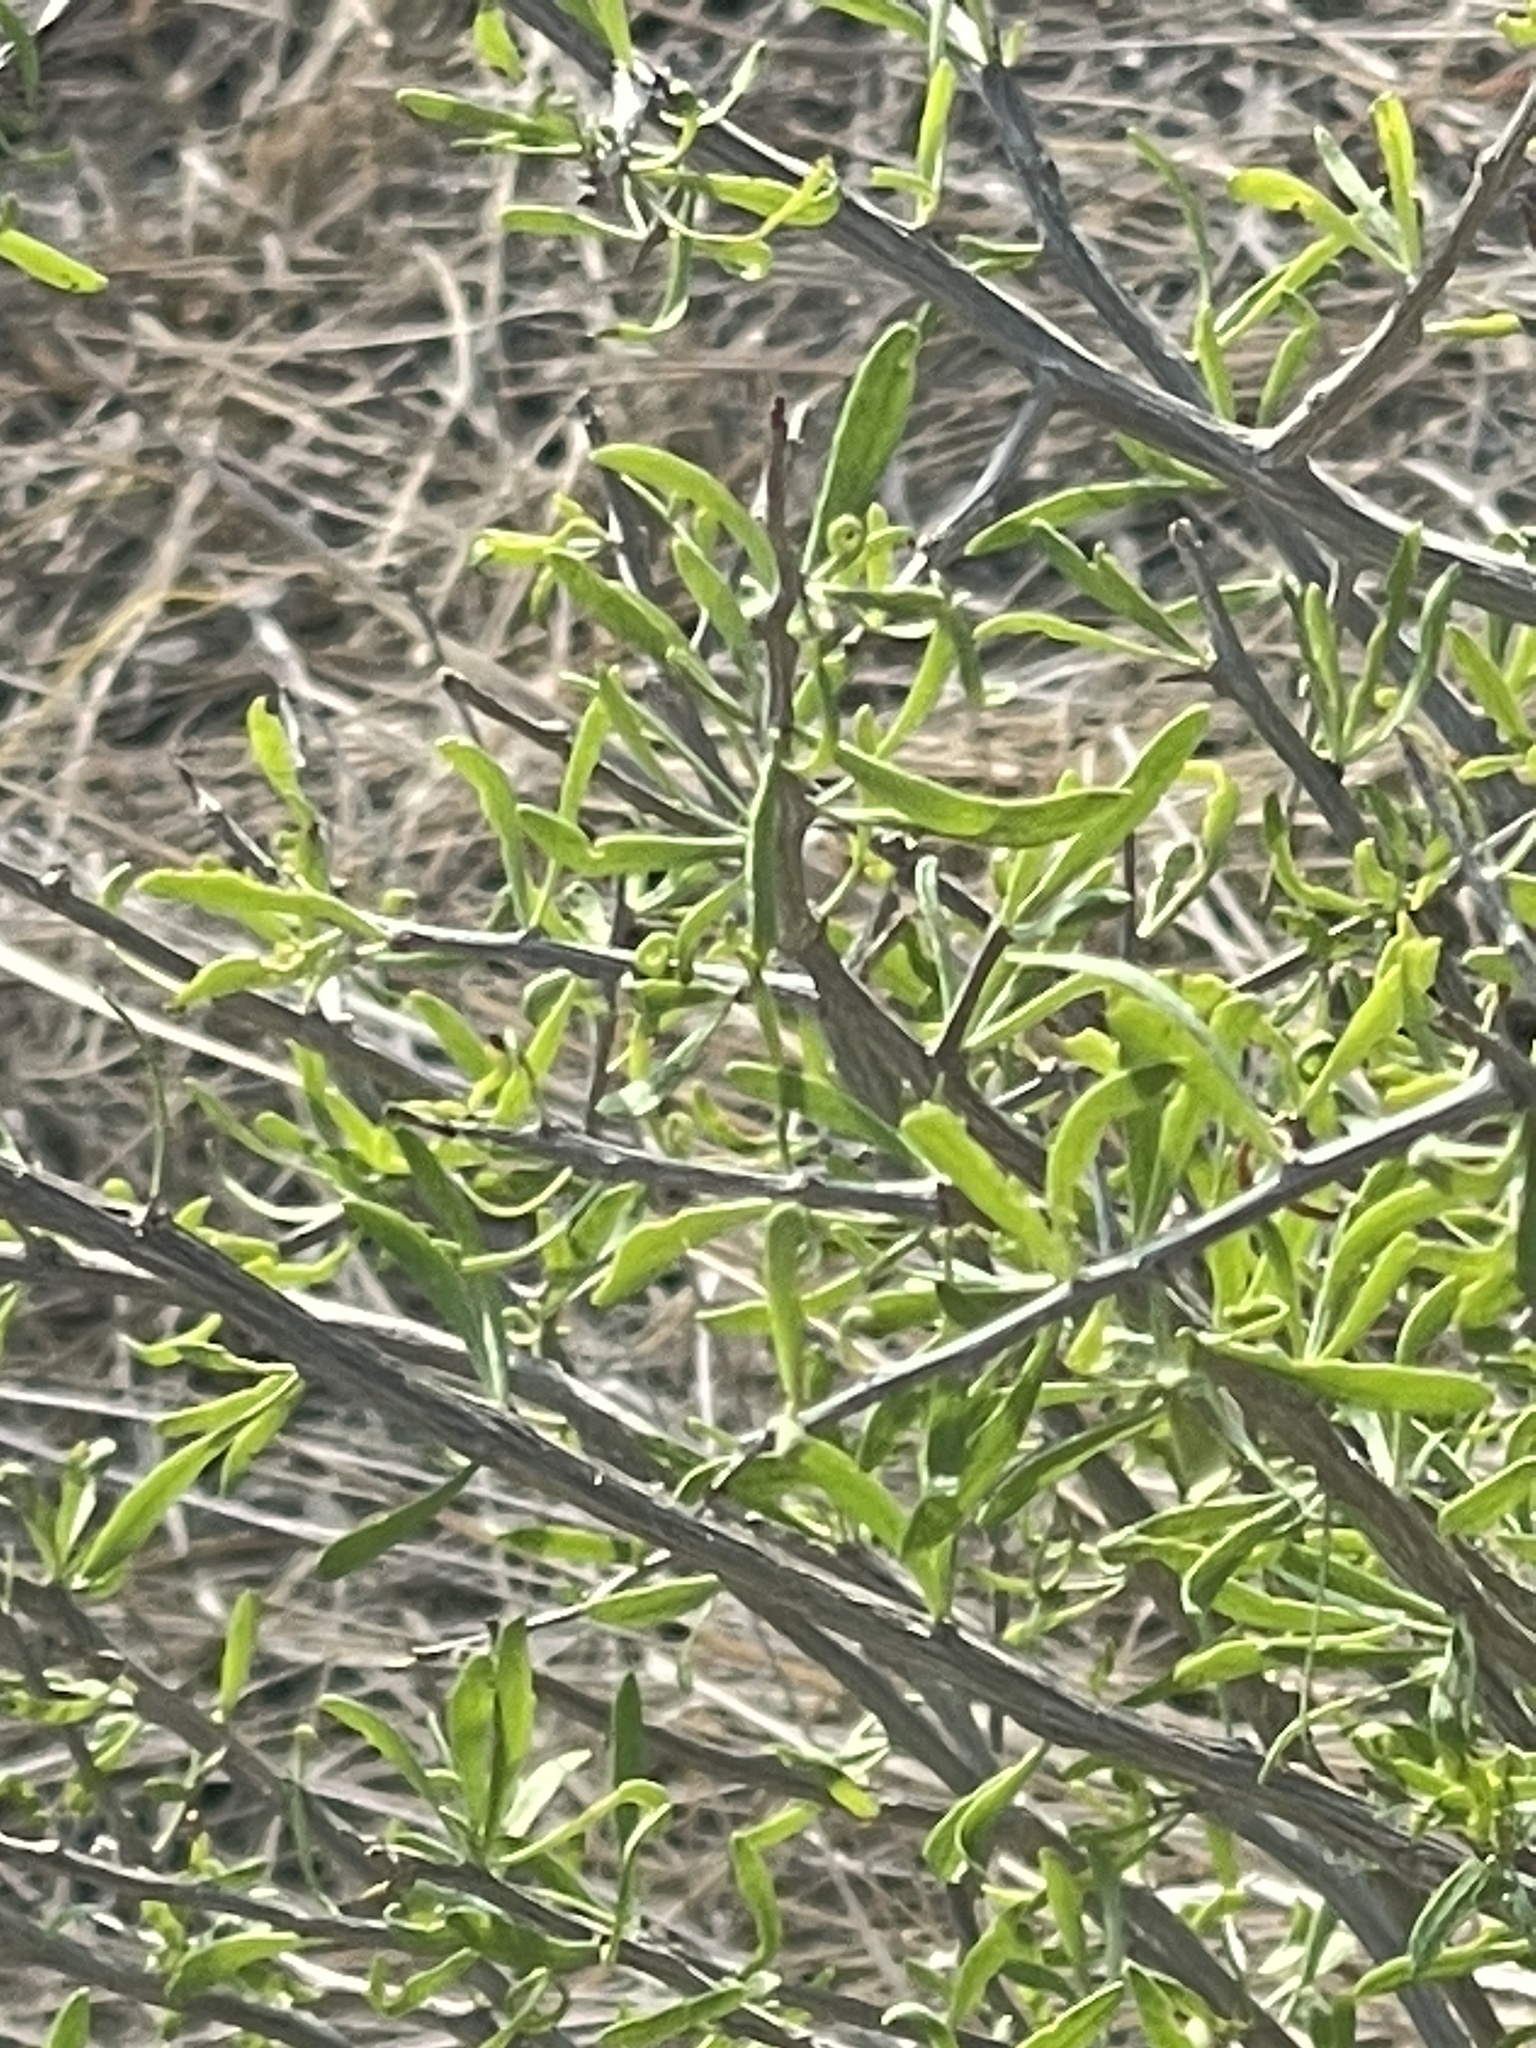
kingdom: Plantae
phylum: Tracheophyta
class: Magnoliopsida
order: Solanales
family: Solanaceae
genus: Lycium
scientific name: Lycium berlandieri
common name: Berlandier wolfberry
